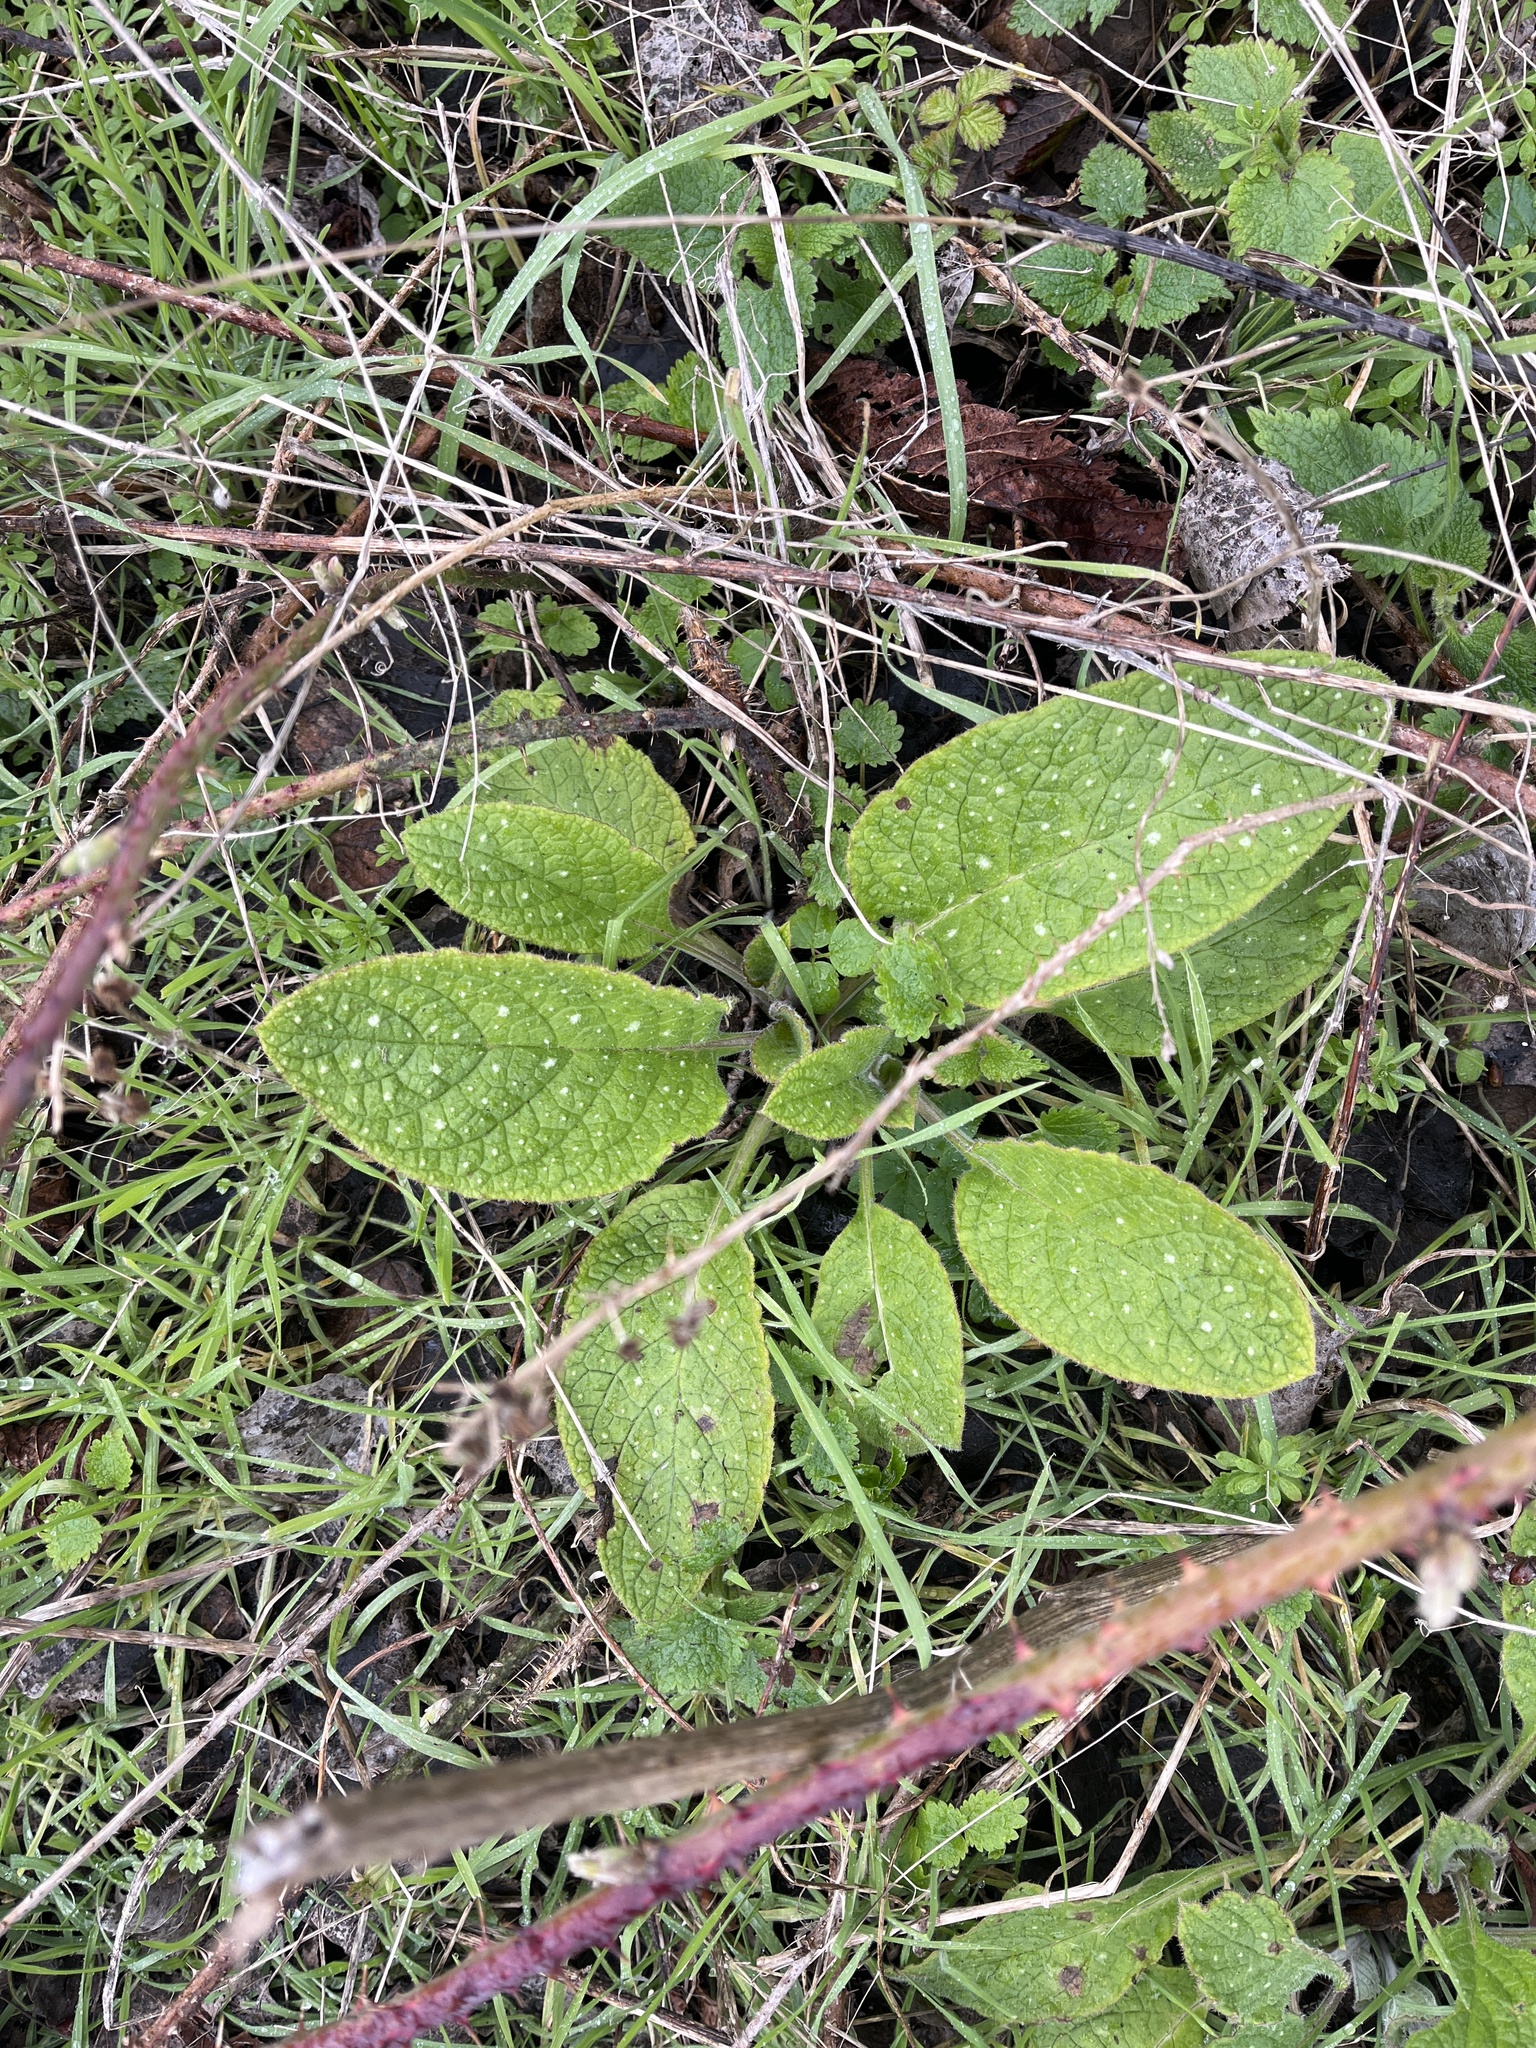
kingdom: Plantae
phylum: Tracheophyta
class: Magnoliopsida
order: Boraginales
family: Boraginaceae
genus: Pentaglottis
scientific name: Pentaglottis sempervirens
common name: Green alkanet
